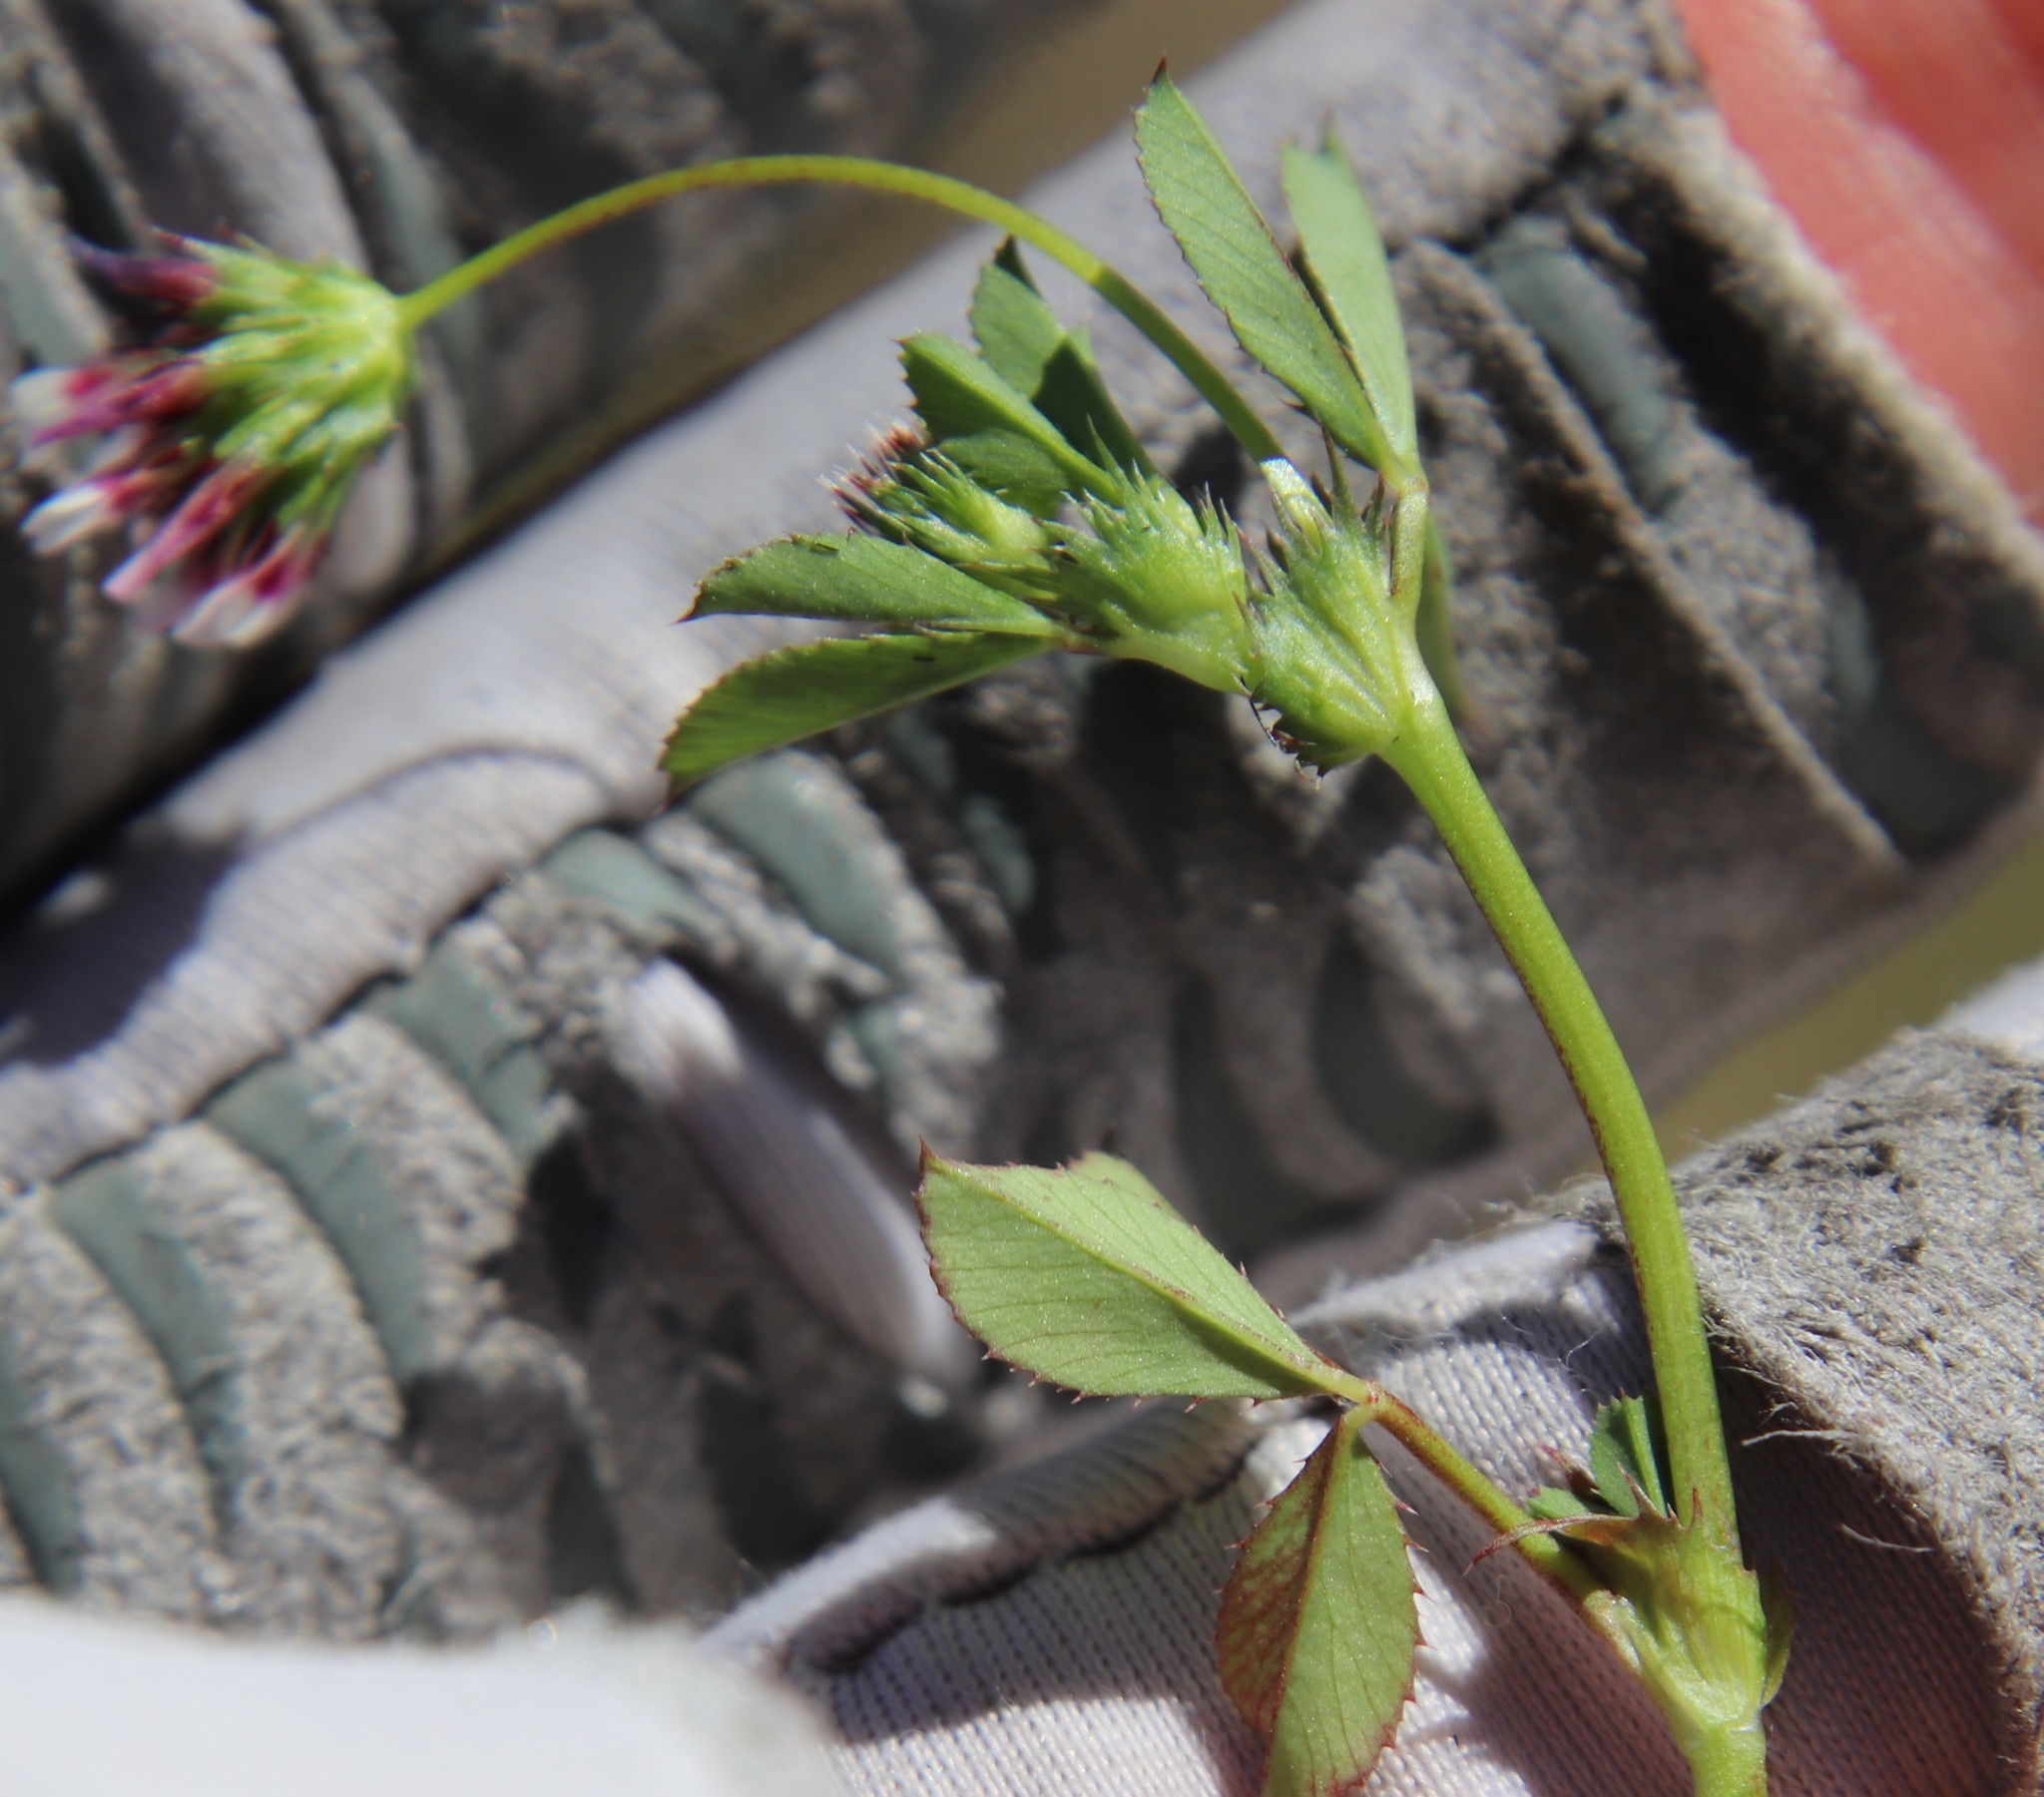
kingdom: Plantae
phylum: Tracheophyta
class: Magnoliopsida
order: Fabales
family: Fabaceae
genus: Trifolium
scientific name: Trifolium variegatum
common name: Whitetip clover
